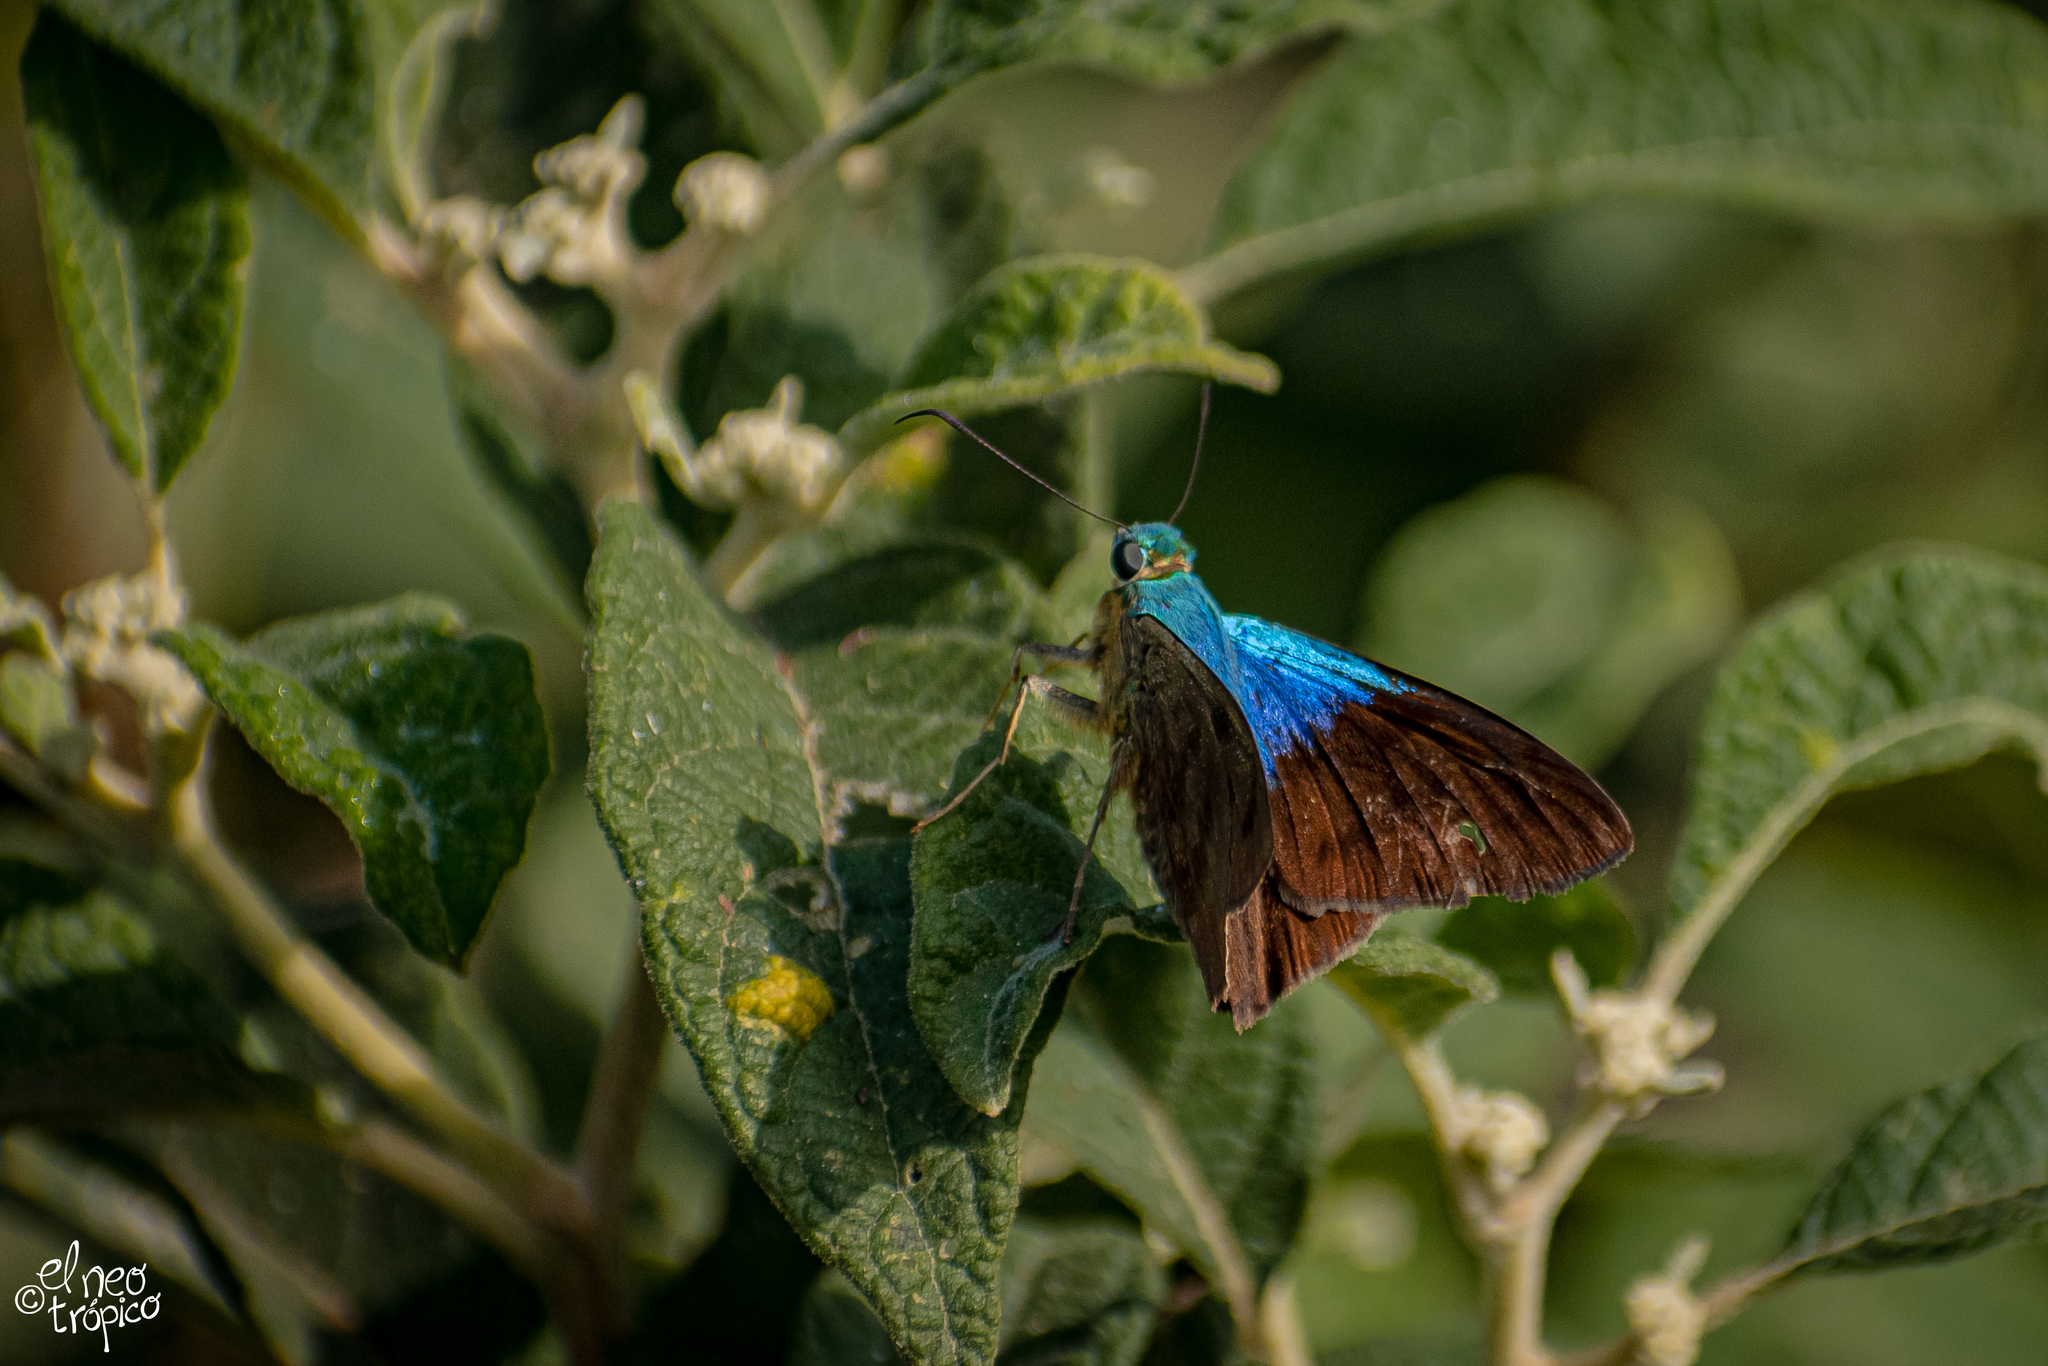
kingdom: Animalia
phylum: Arthropoda
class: Insecta
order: Lepidoptera
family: Hesperiidae
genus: Astraptes
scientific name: Astraptes alector
